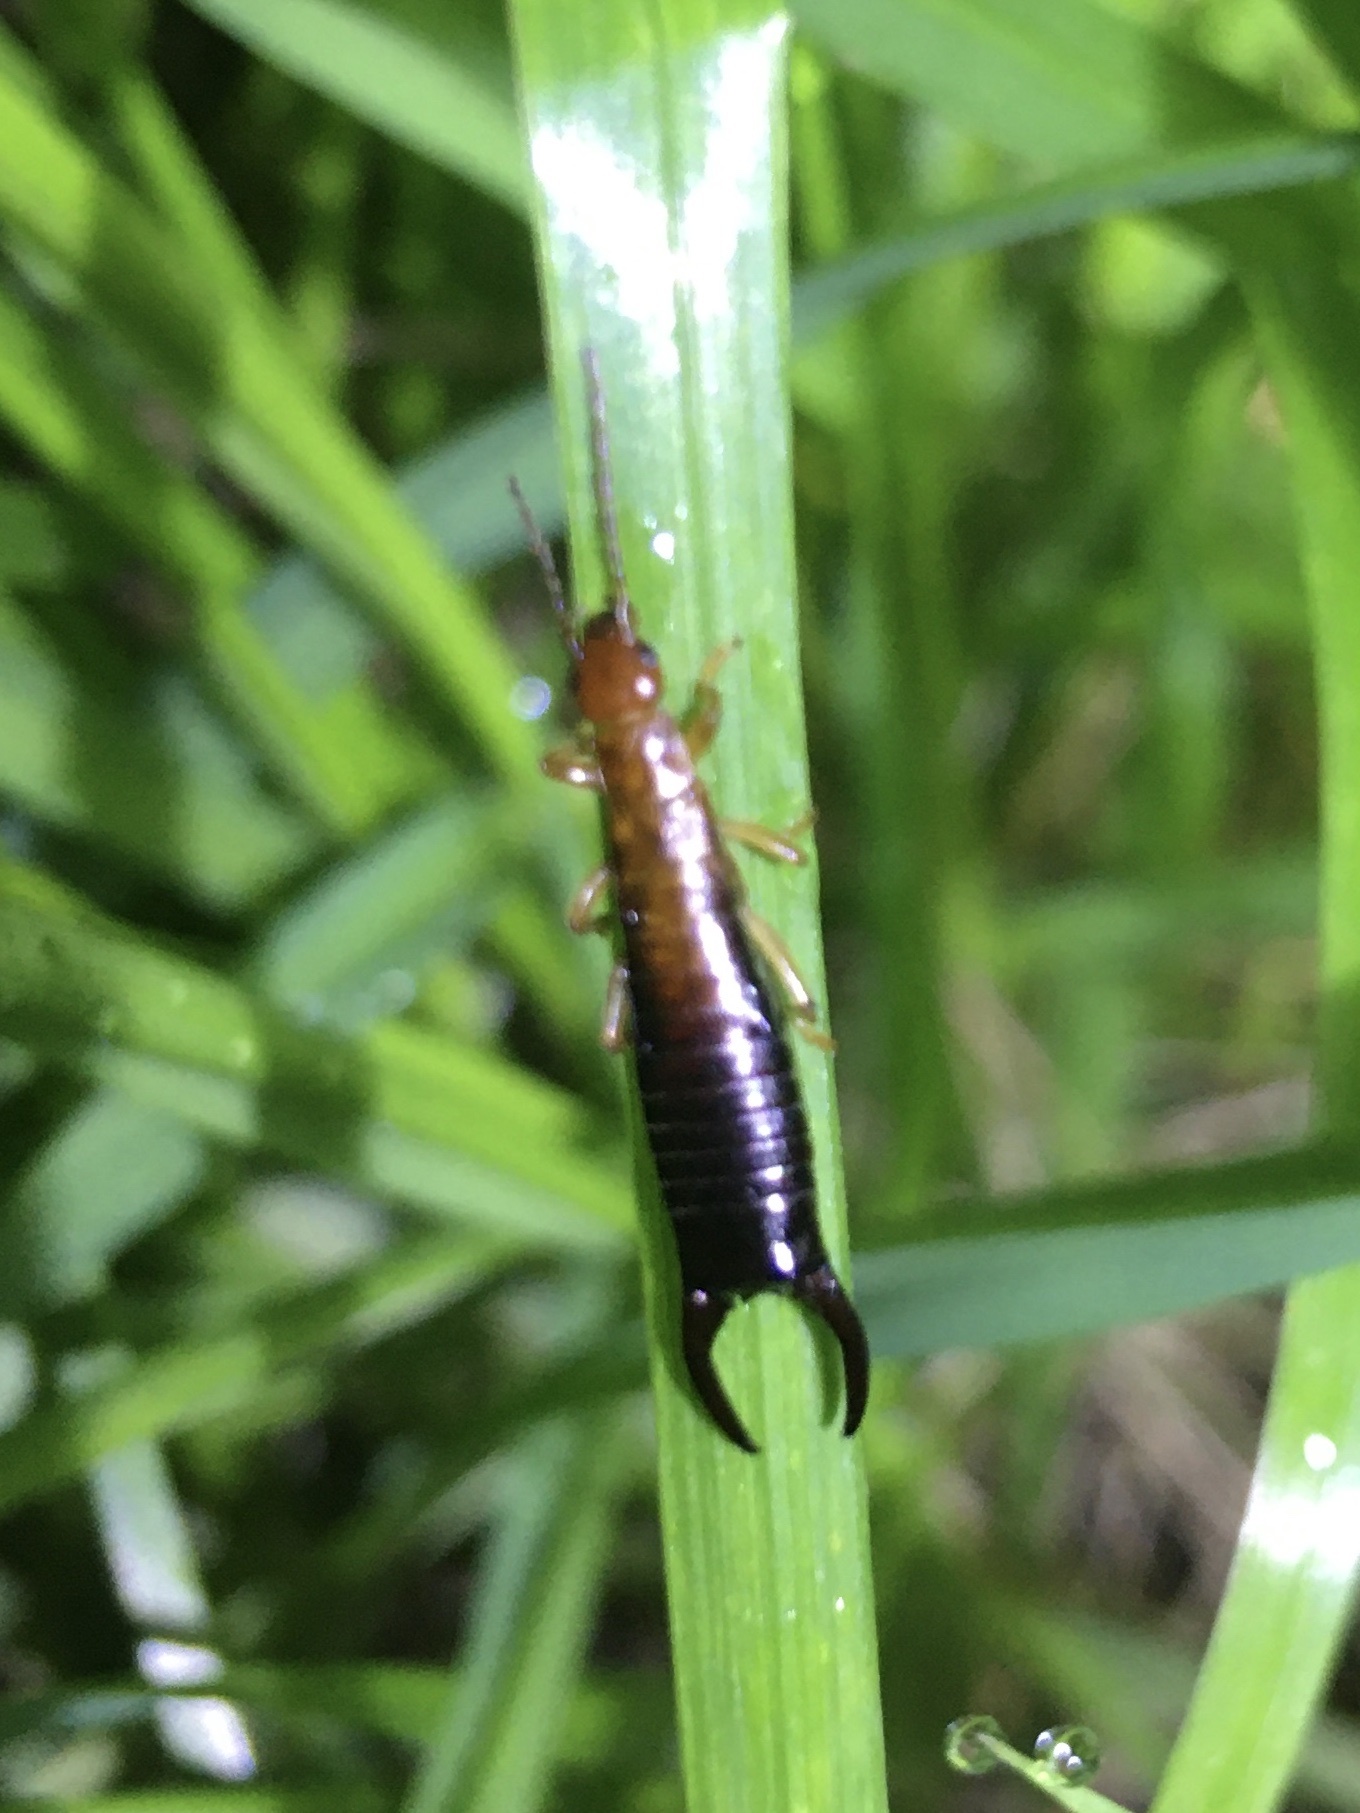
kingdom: Animalia
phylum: Arthropoda
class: Insecta
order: Dermaptera
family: Forficulidae
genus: Proforficula
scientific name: Proforficula peringueyi
